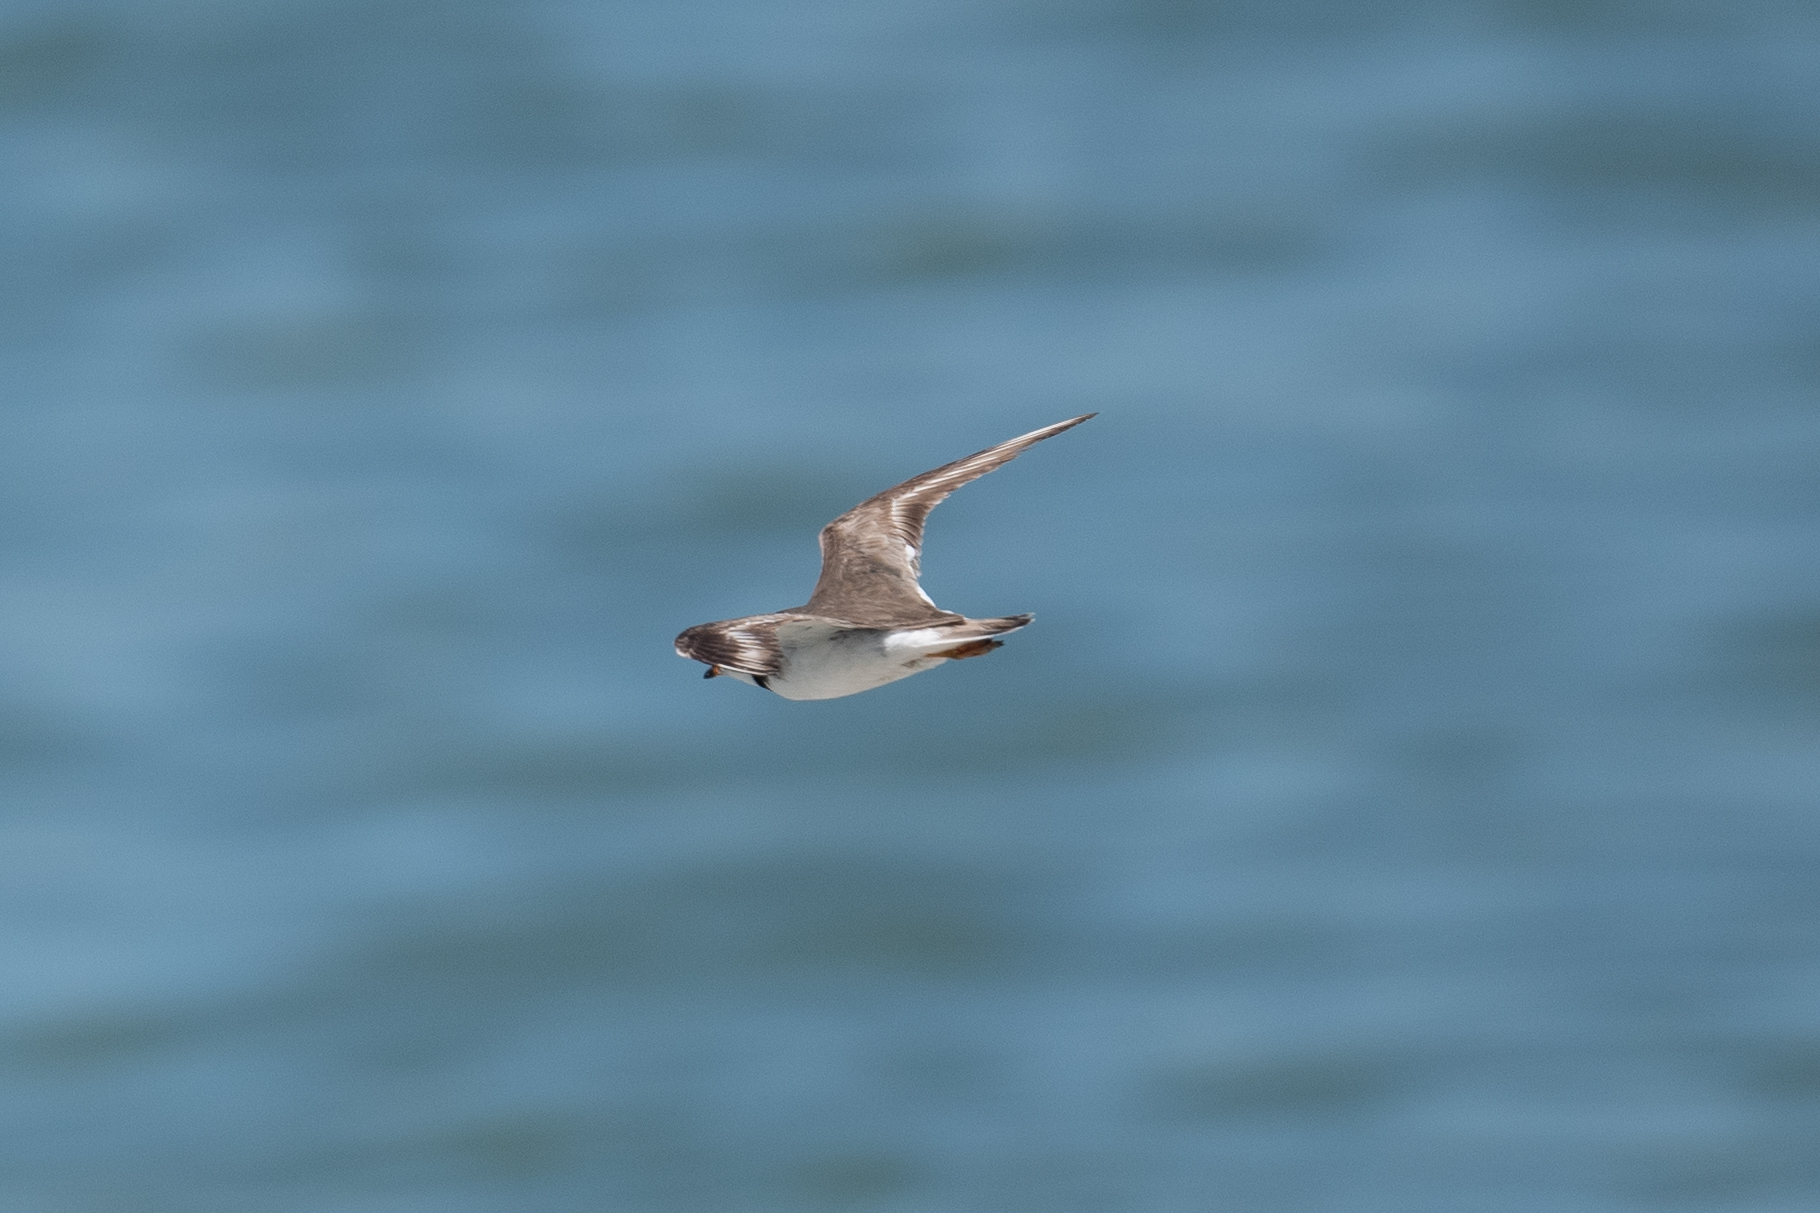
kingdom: Animalia
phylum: Chordata
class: Aves
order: Charadriiformes
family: Charadriidae
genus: Charadrius
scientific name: Charadrius semipalmatus
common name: Semipalmated plover
